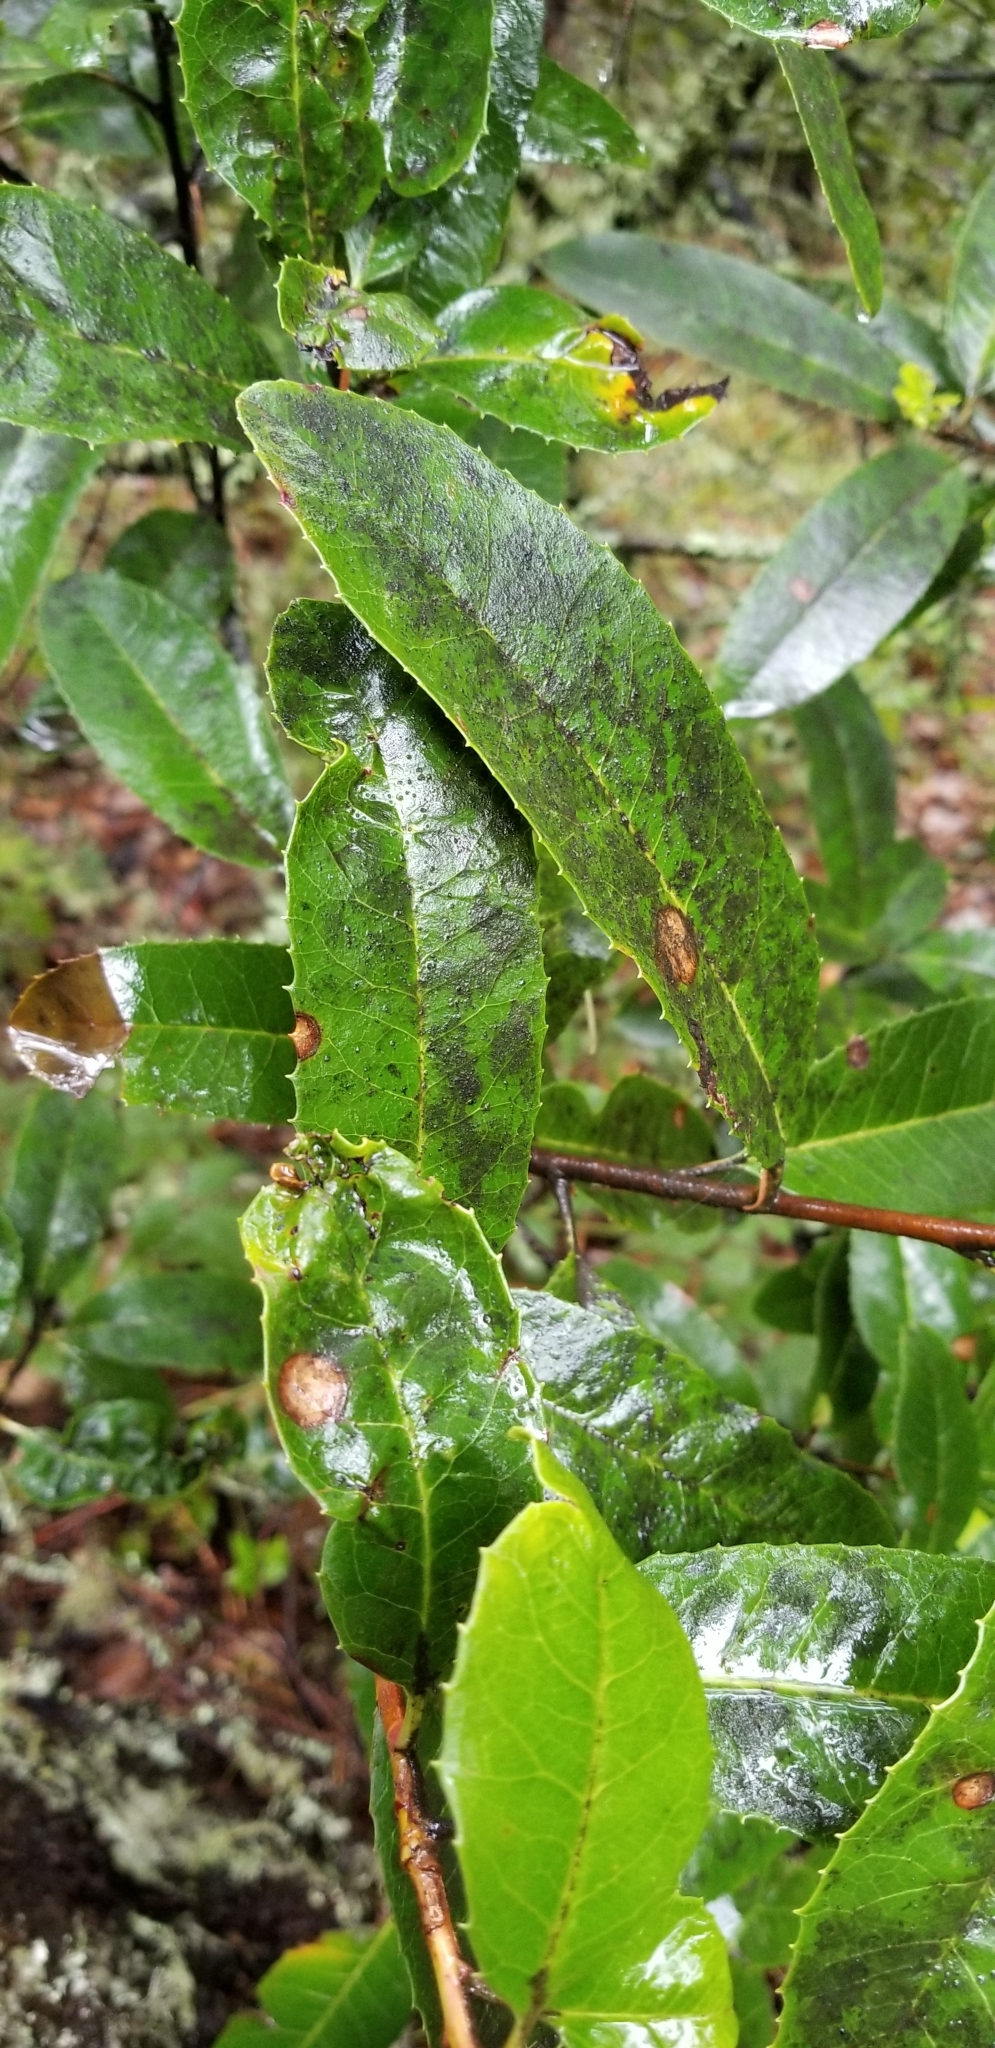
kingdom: Plantae
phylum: Tracheophyta
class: Magnoliopsida
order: Rosales
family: Rosaceae
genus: Heteromeles
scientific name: Heteromeles arbutifolia
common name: California-holly
